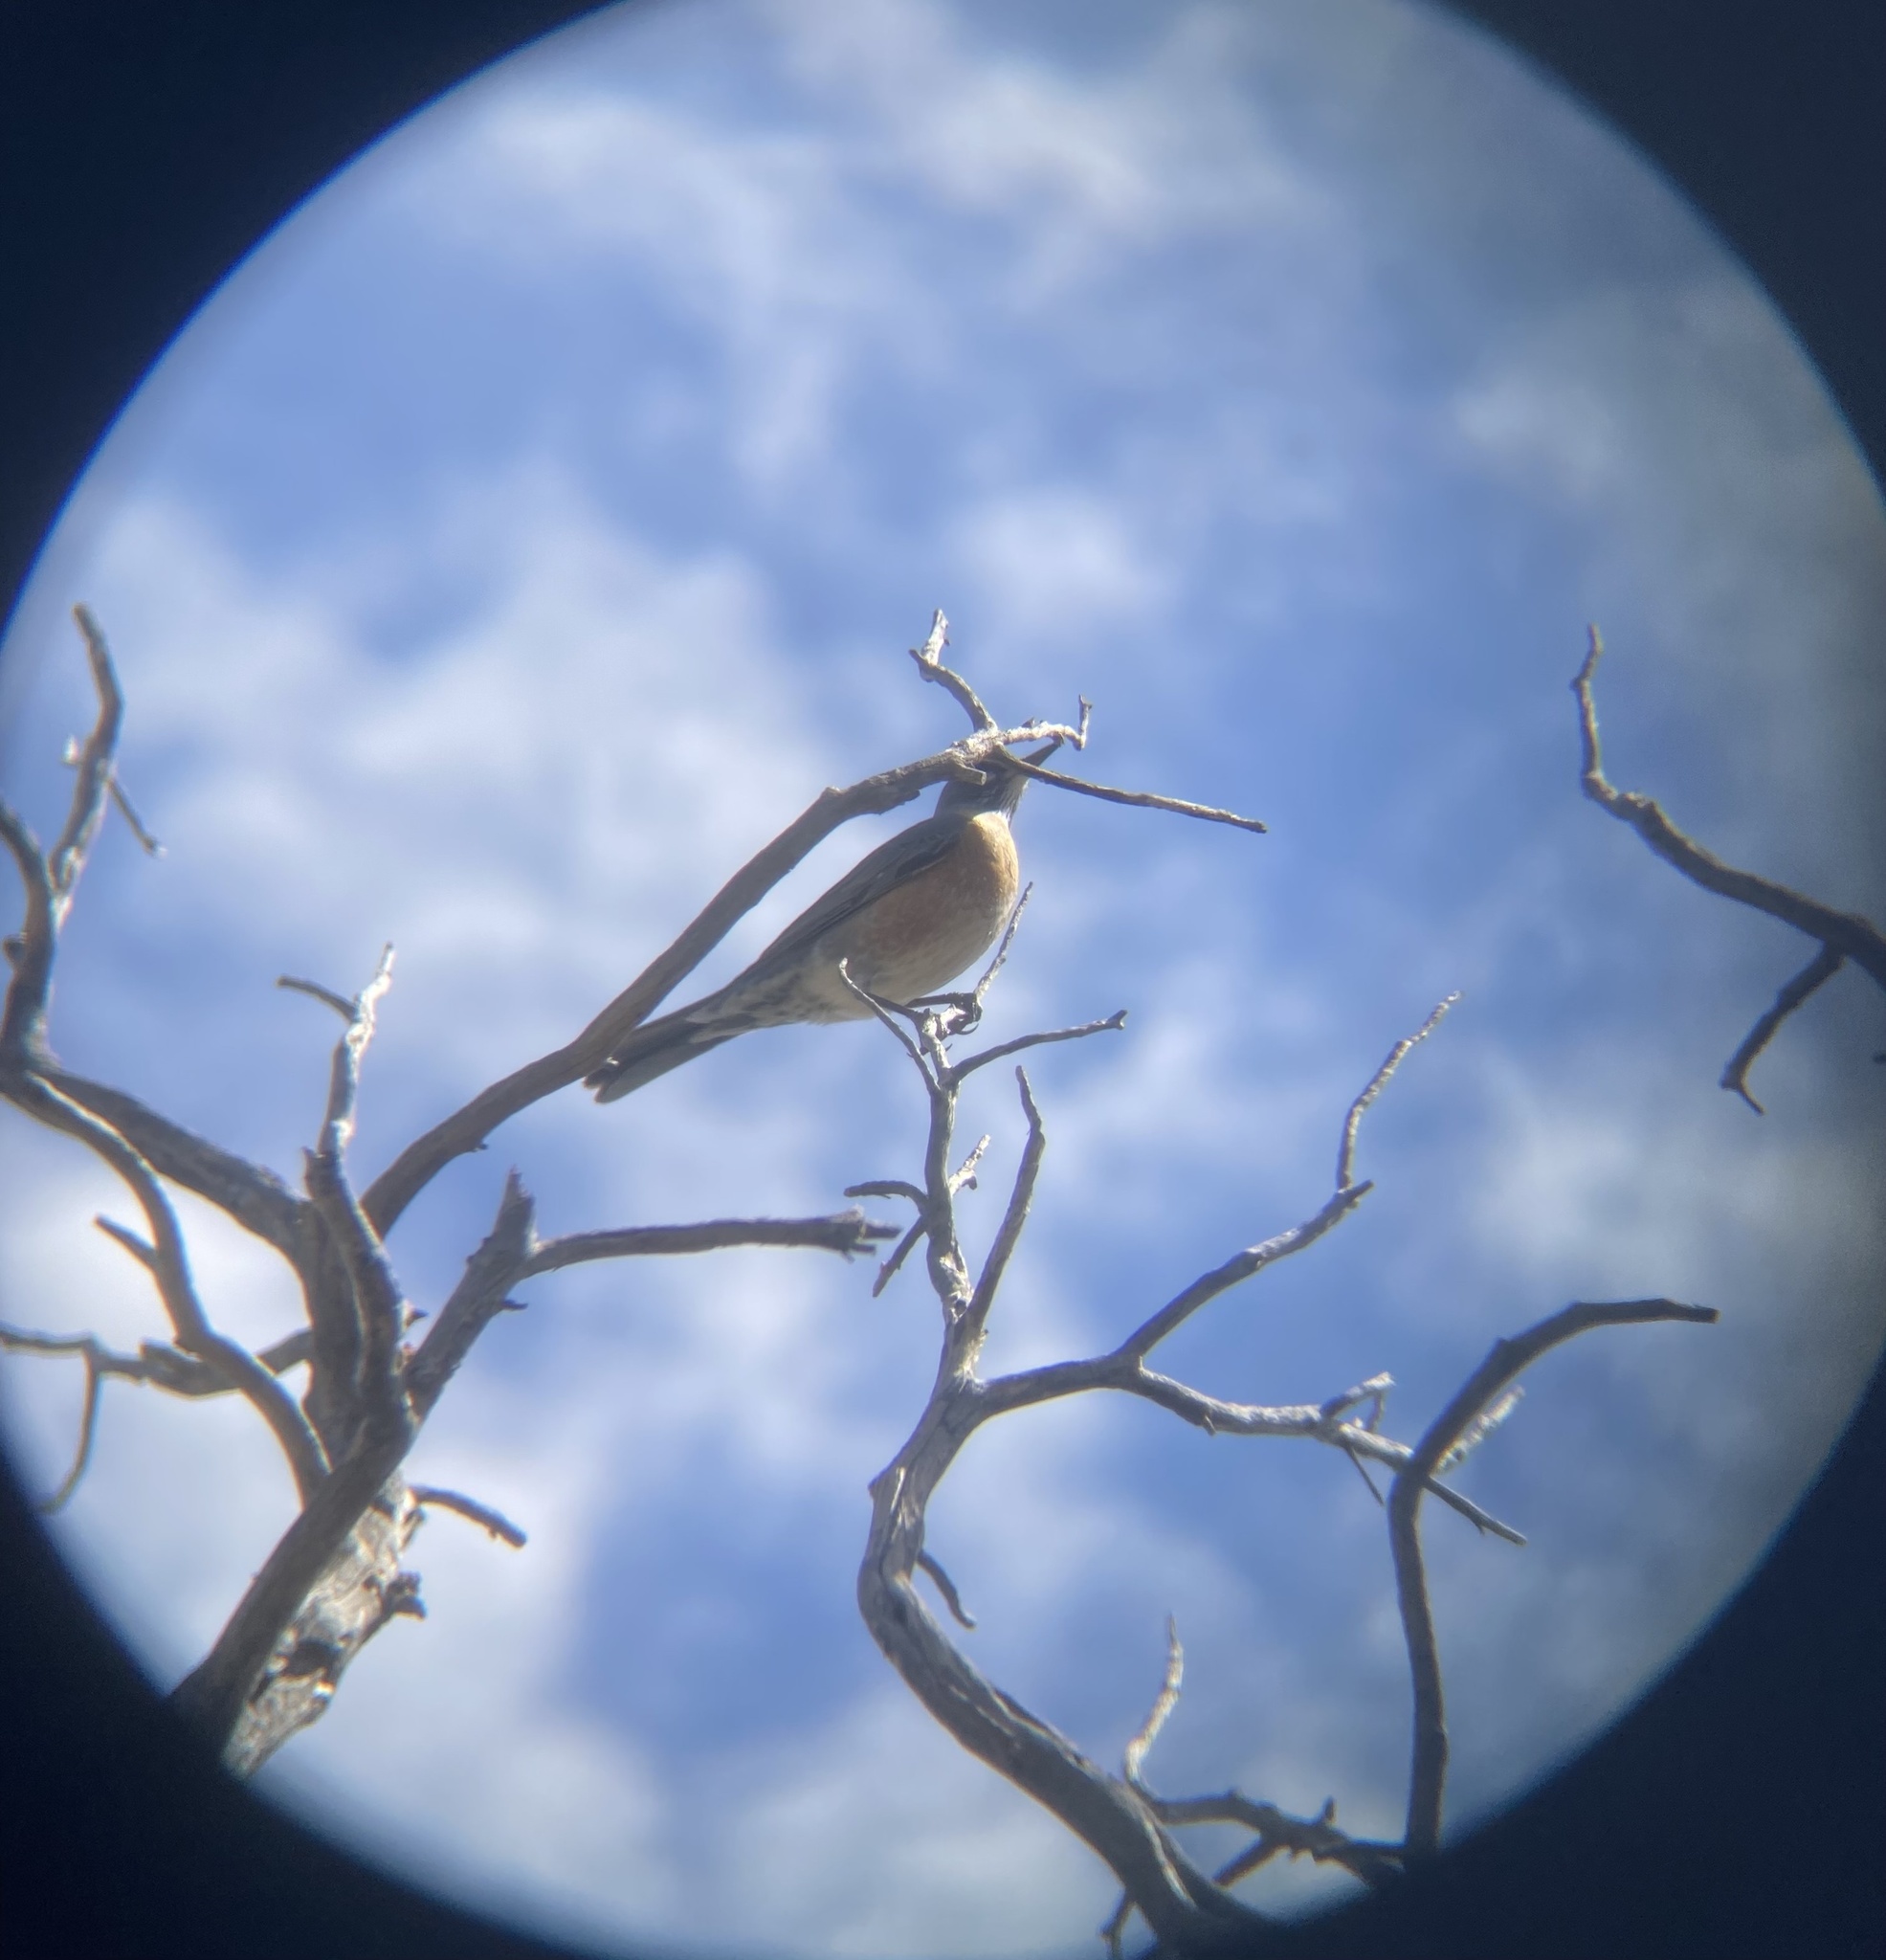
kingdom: Animalia
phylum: Chordata
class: Aves
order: Passeriformes
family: Turdidae
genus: Turdus
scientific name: Turdus migratorius
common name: American robin
